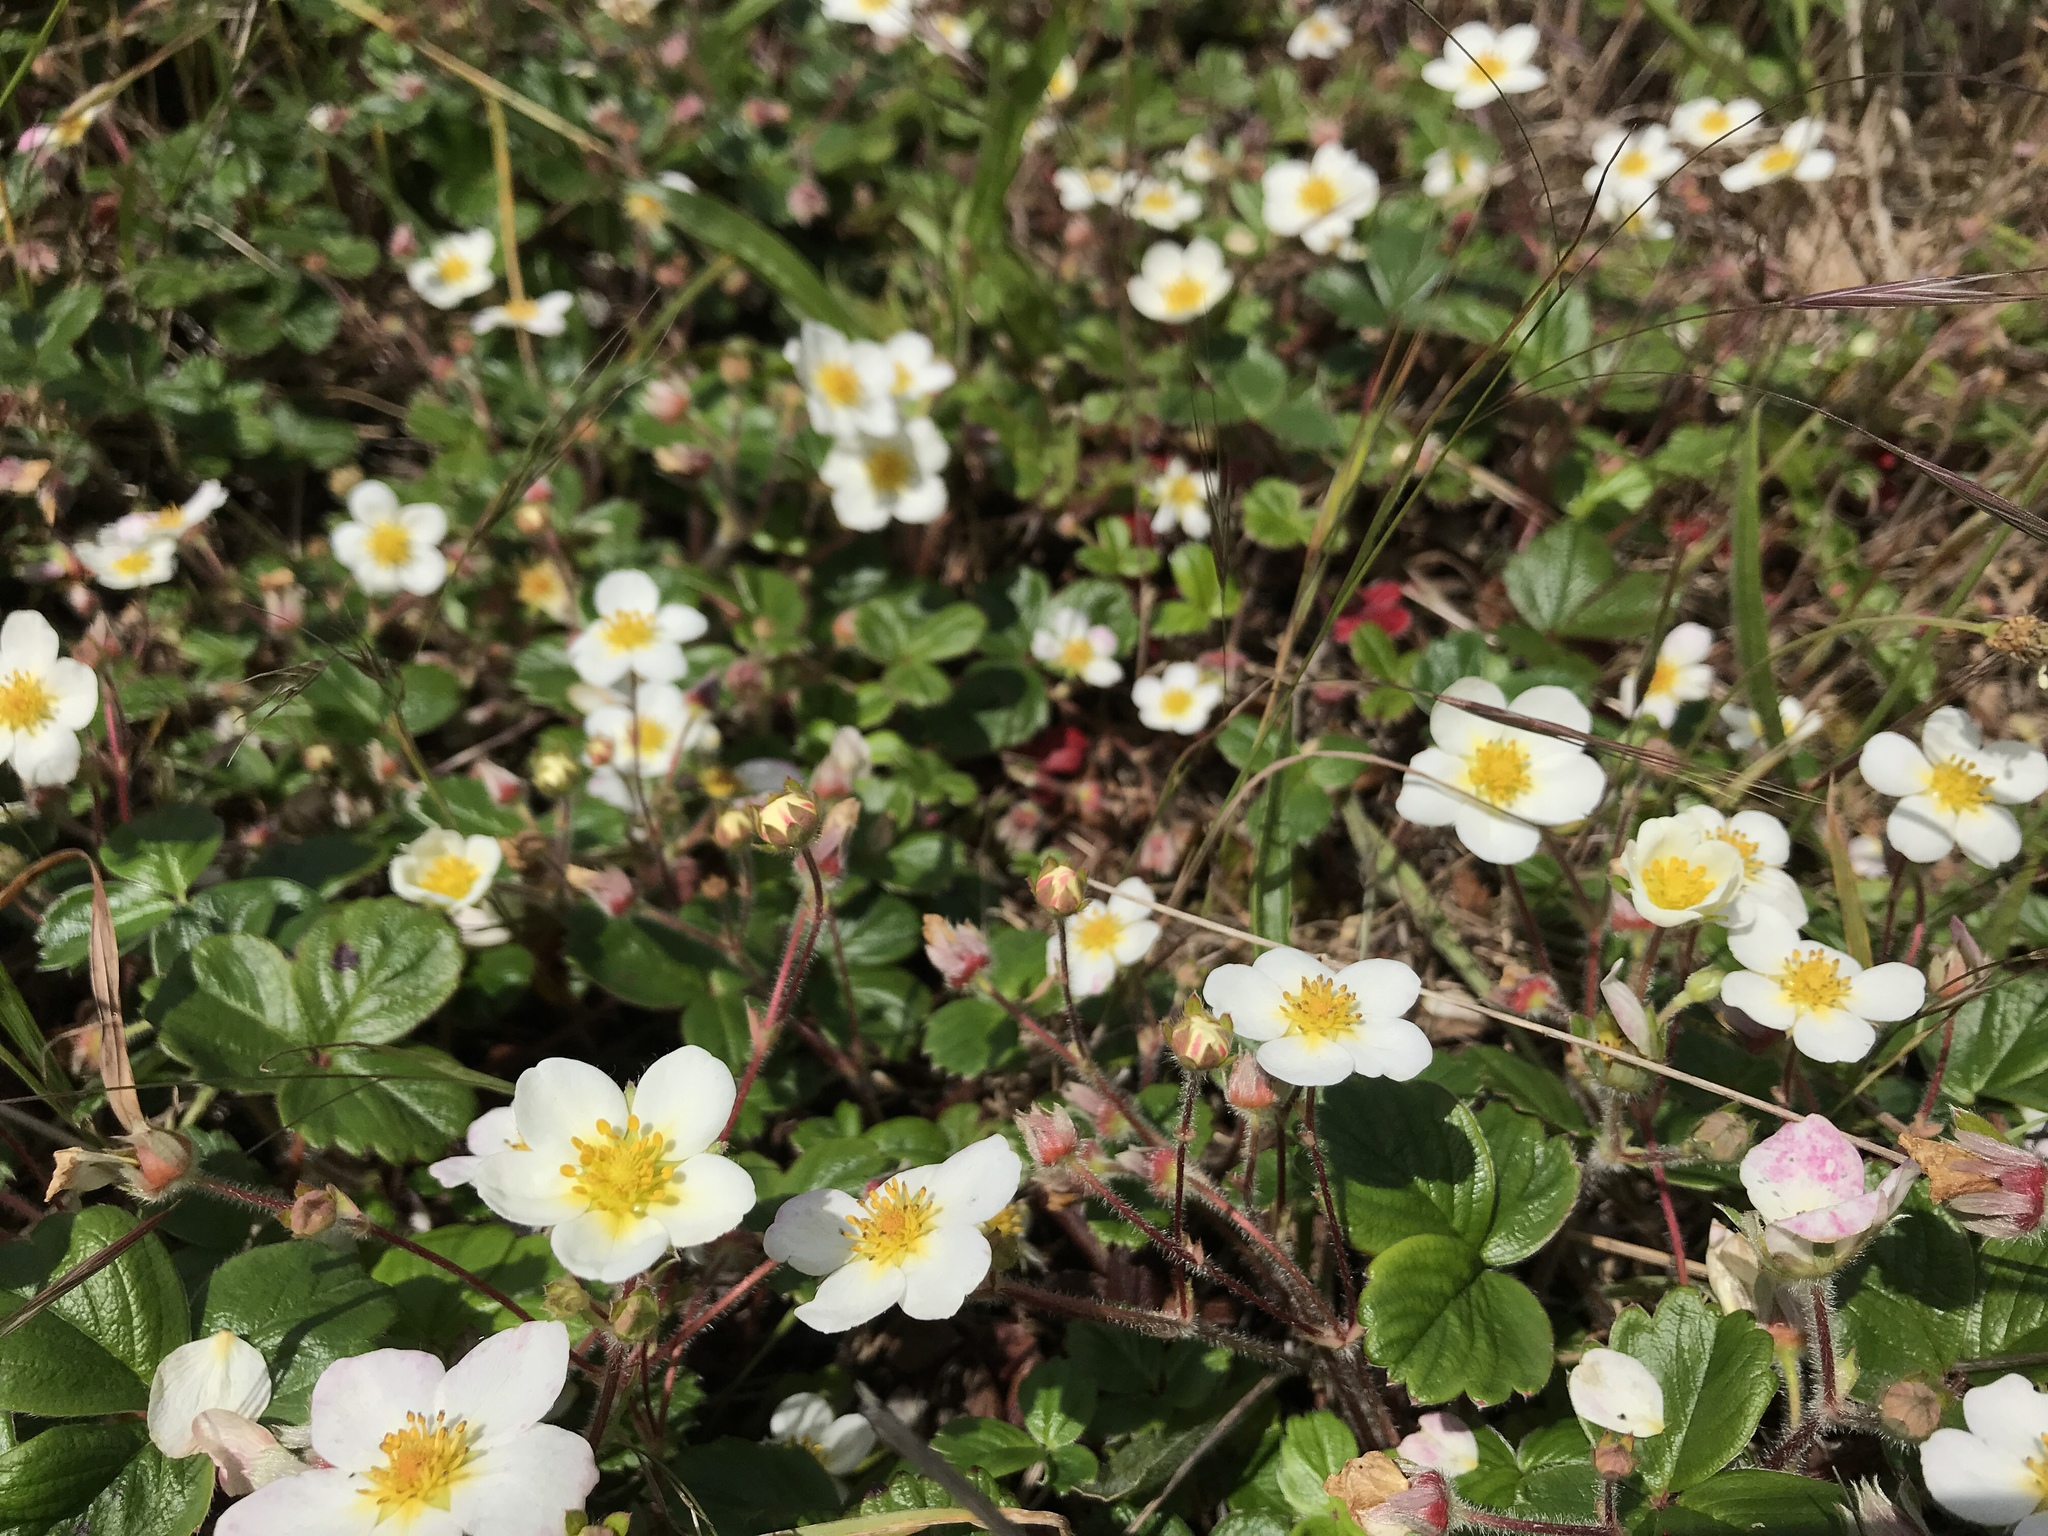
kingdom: Plantae
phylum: Tracheophyta
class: Magnoliopsida
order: Rosales
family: Rosaceae
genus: Fragaria
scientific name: Fragaria chiloensis
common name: Beach strawberry
